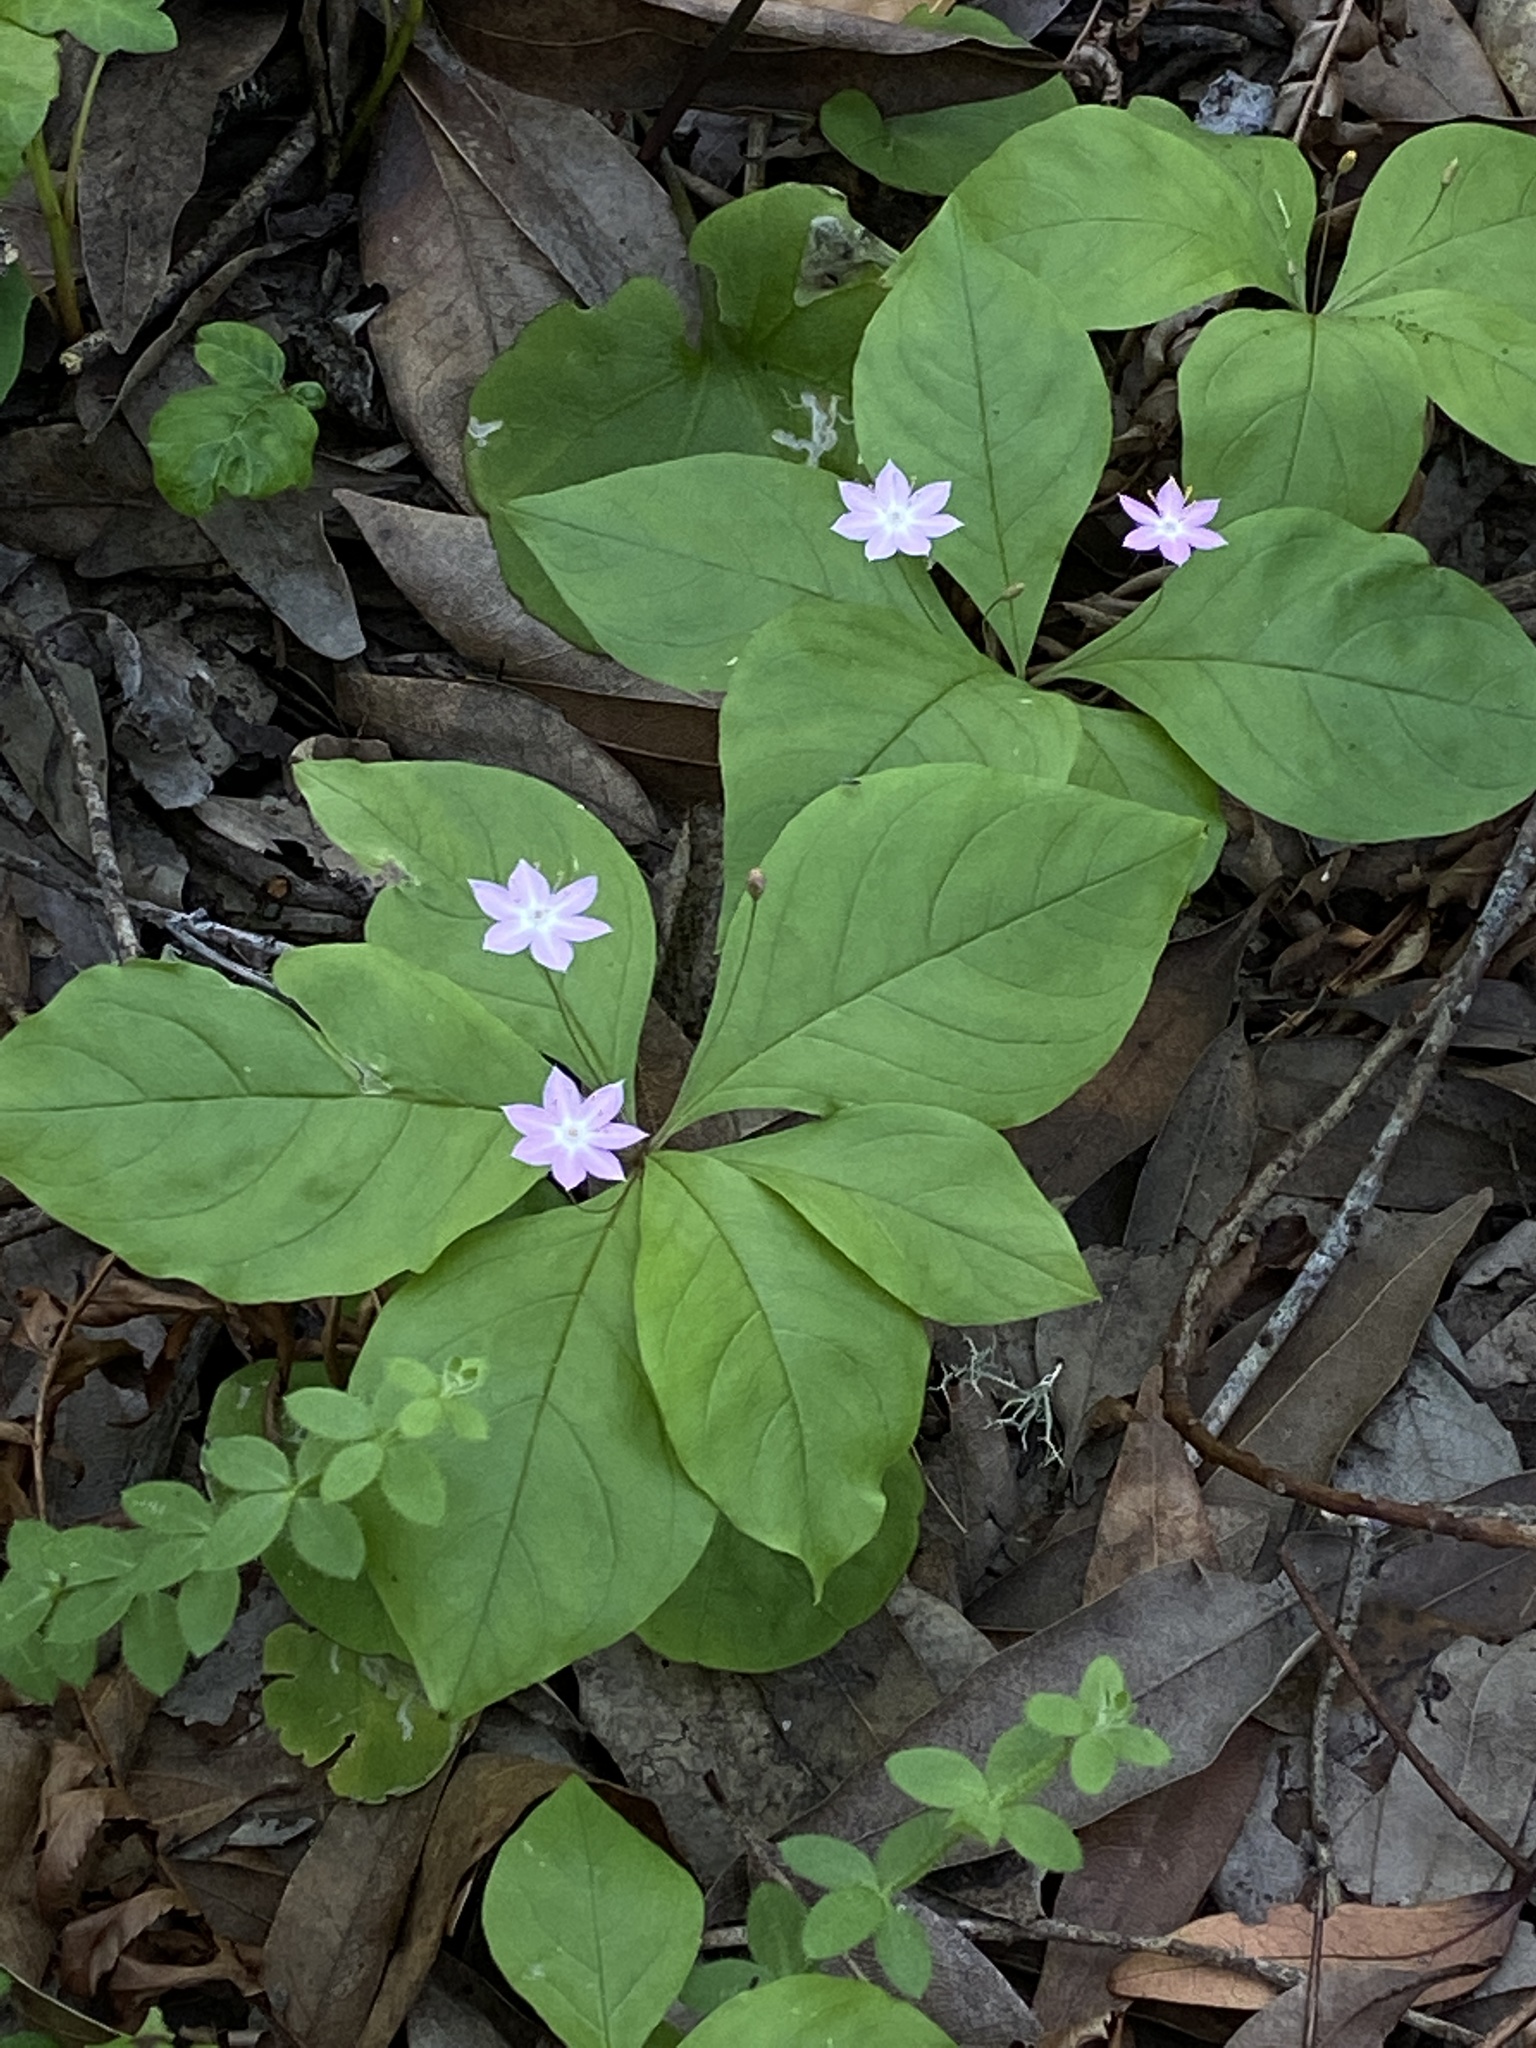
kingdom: Plantae
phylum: Tracheophyta
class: Magnoliopsida
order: Ericales
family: Primulaceae
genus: Lysimachia
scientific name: Lysimachia latifolia
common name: Pacific starflower
